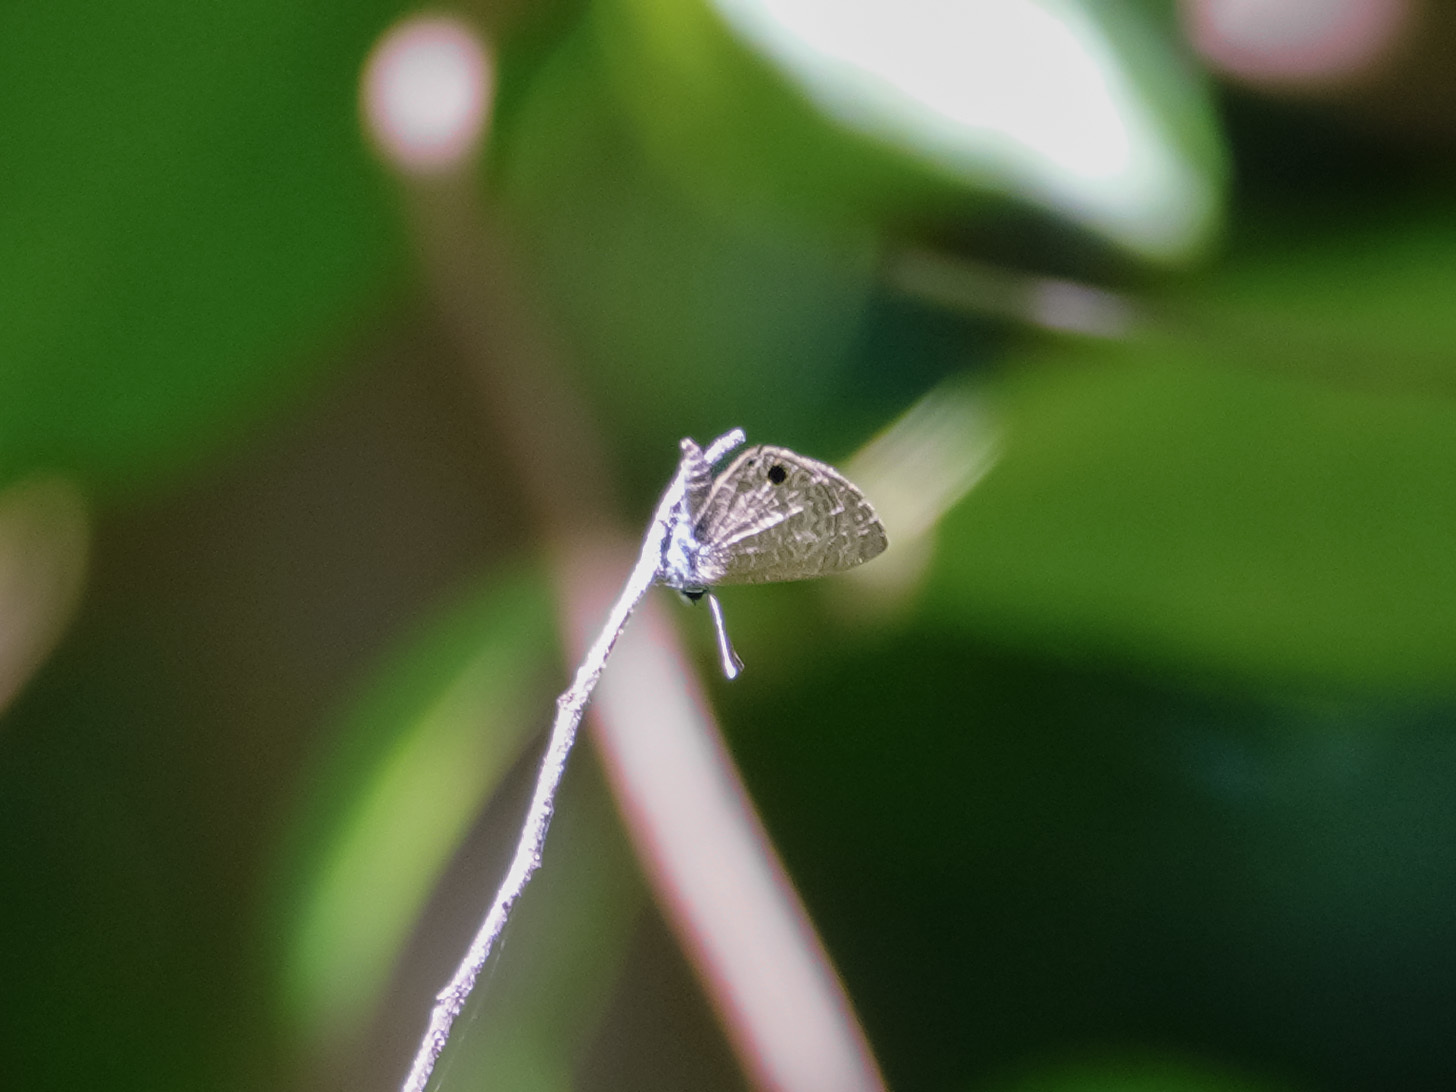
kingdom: Animalia
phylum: Arthropoda
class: Insecta
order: Lepidoptera
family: Lycaenidae
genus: Prosotas
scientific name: Prosotas dubiosa
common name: Tailless lineblue
